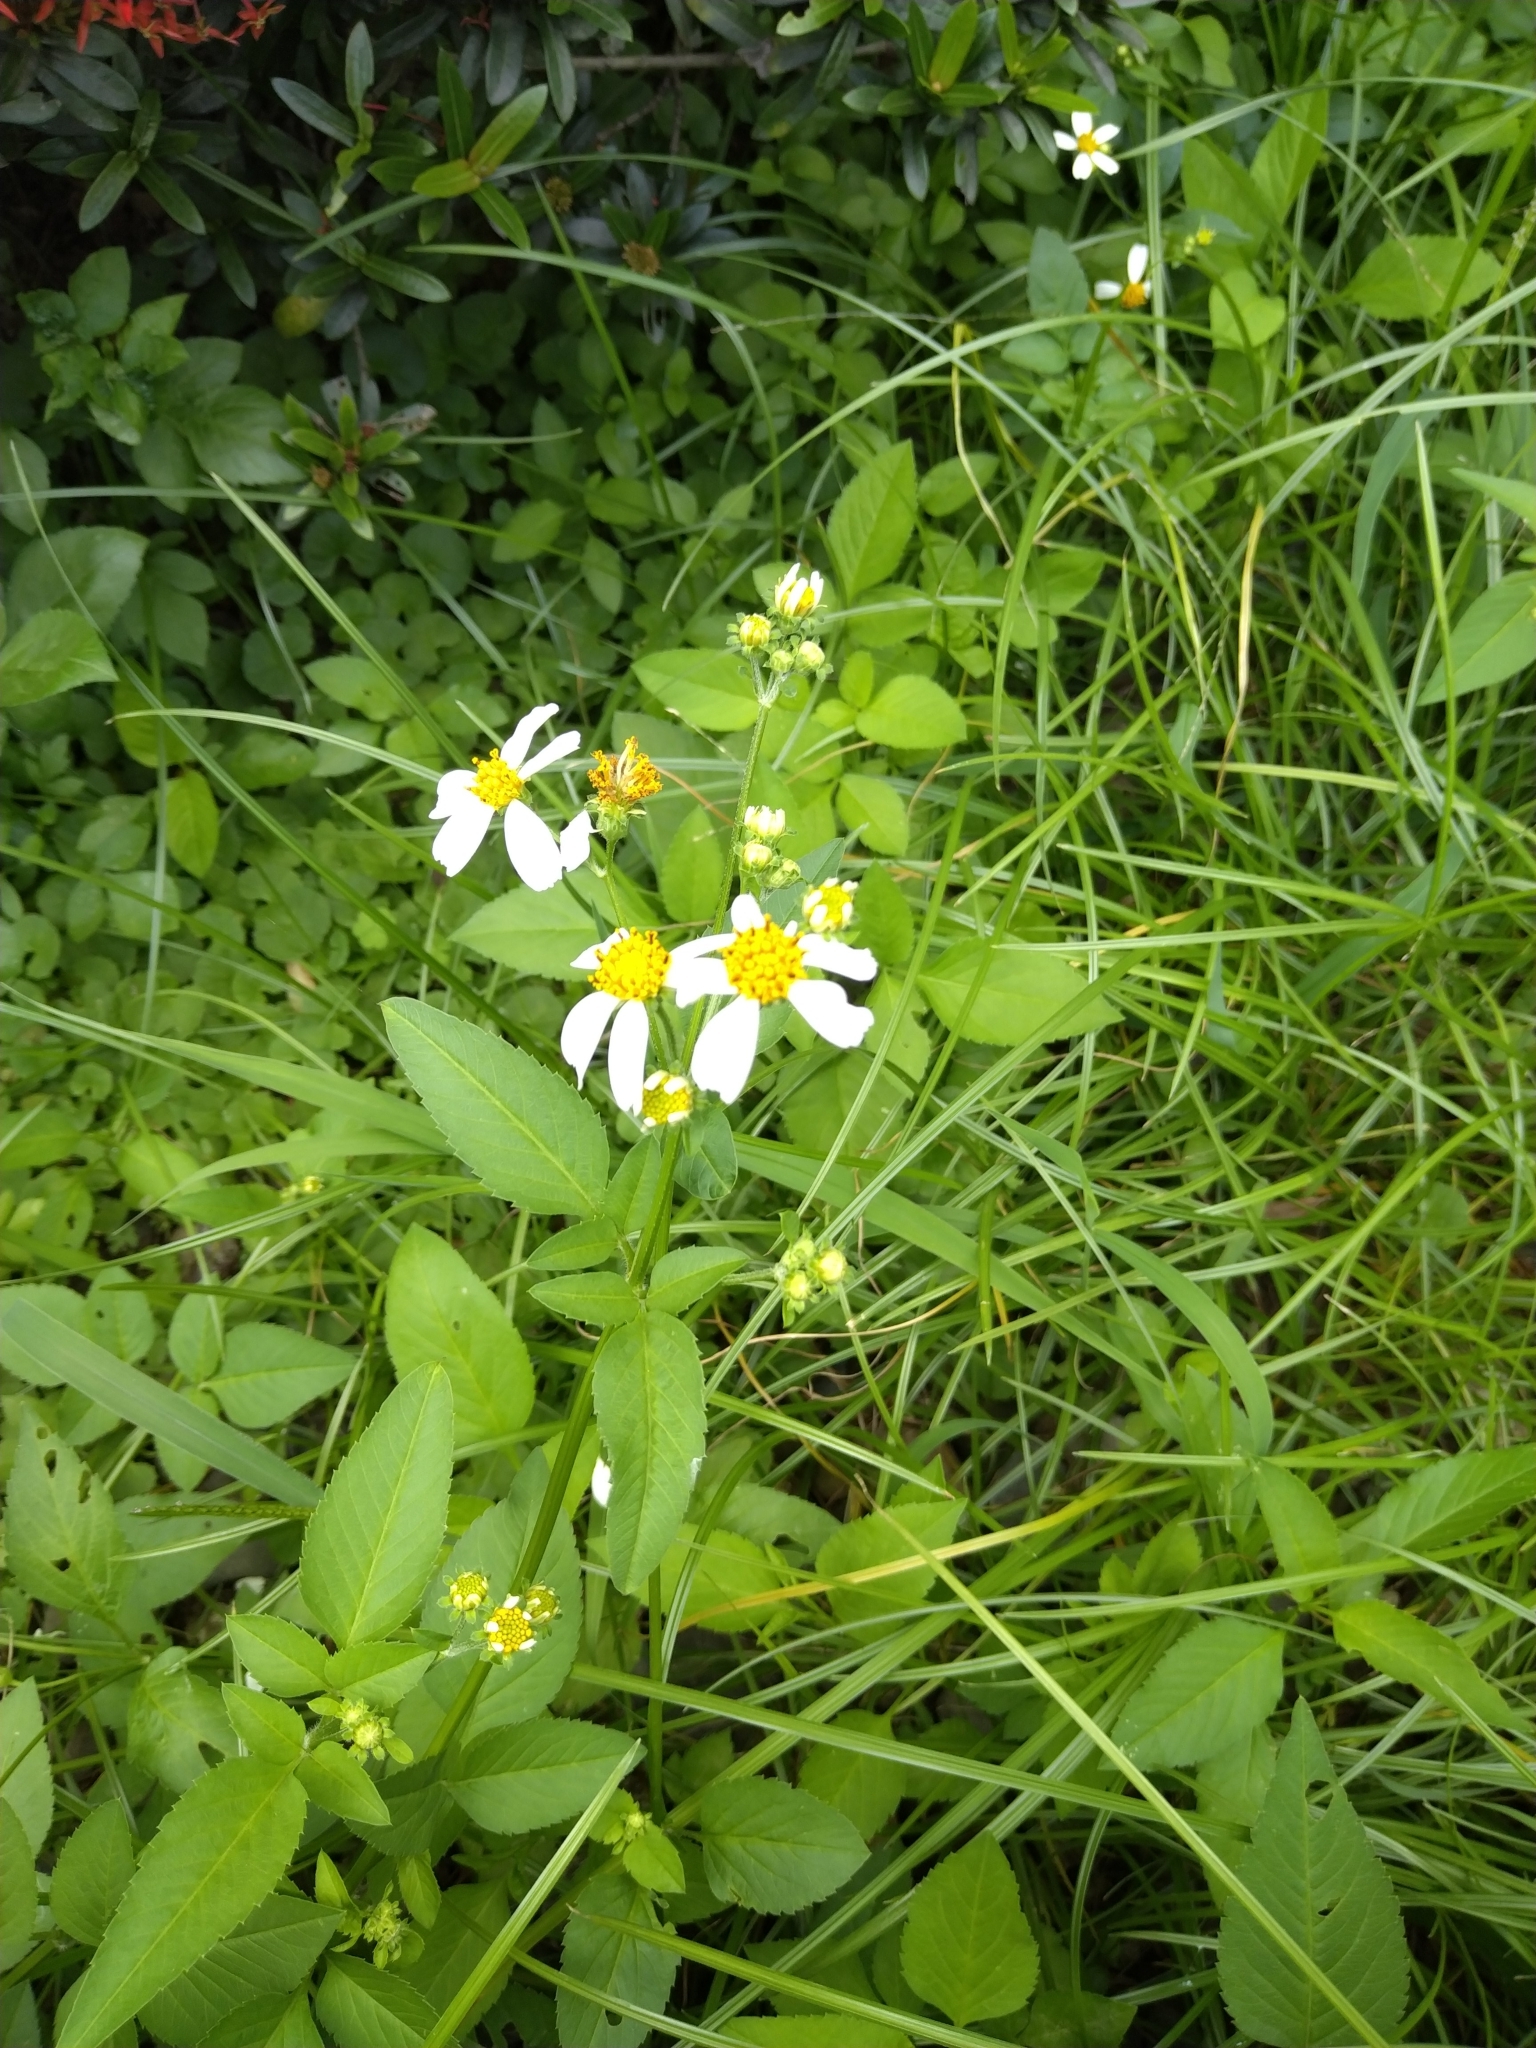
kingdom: Plantae
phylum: Tracheophyta
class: Magnoliopsida
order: Asterales
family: Asteraceae
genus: Bidens
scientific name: Bidens alba
